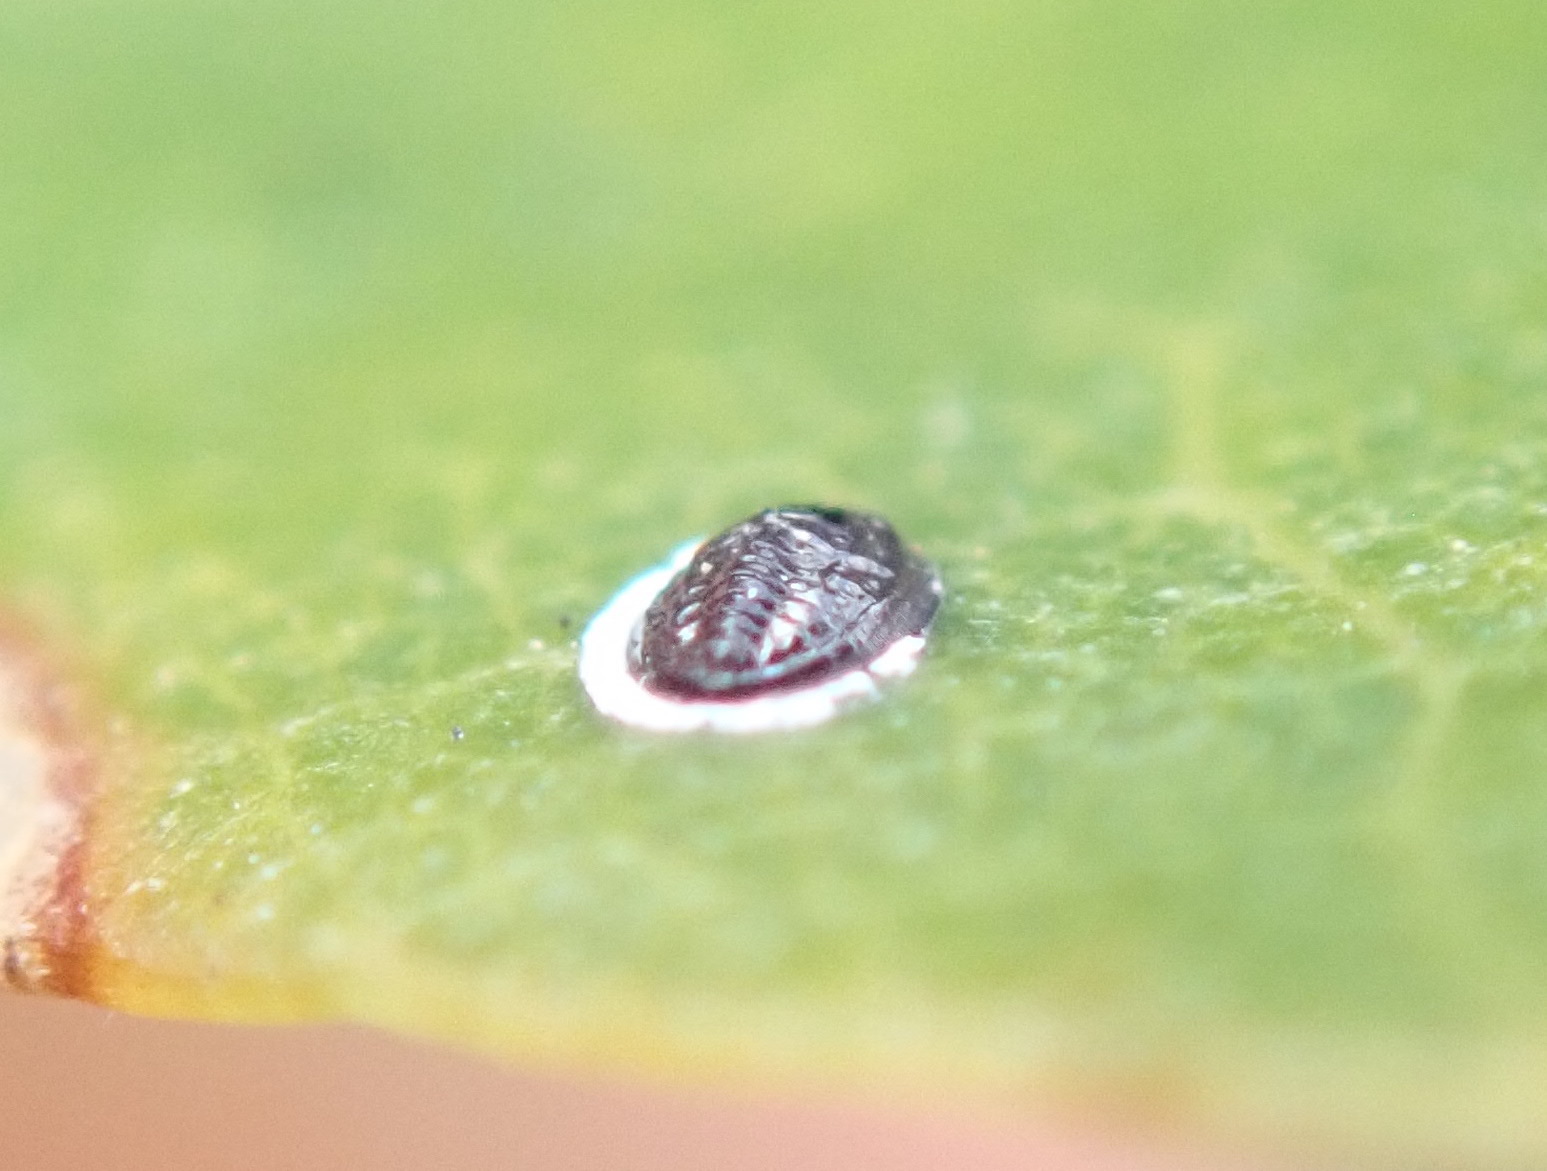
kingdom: Animalia
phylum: Arthropoda
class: Insecta
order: Hemiptera
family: Aleyrodidae
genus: Tetraleurodes
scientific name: Tetraleurodes perileuca
